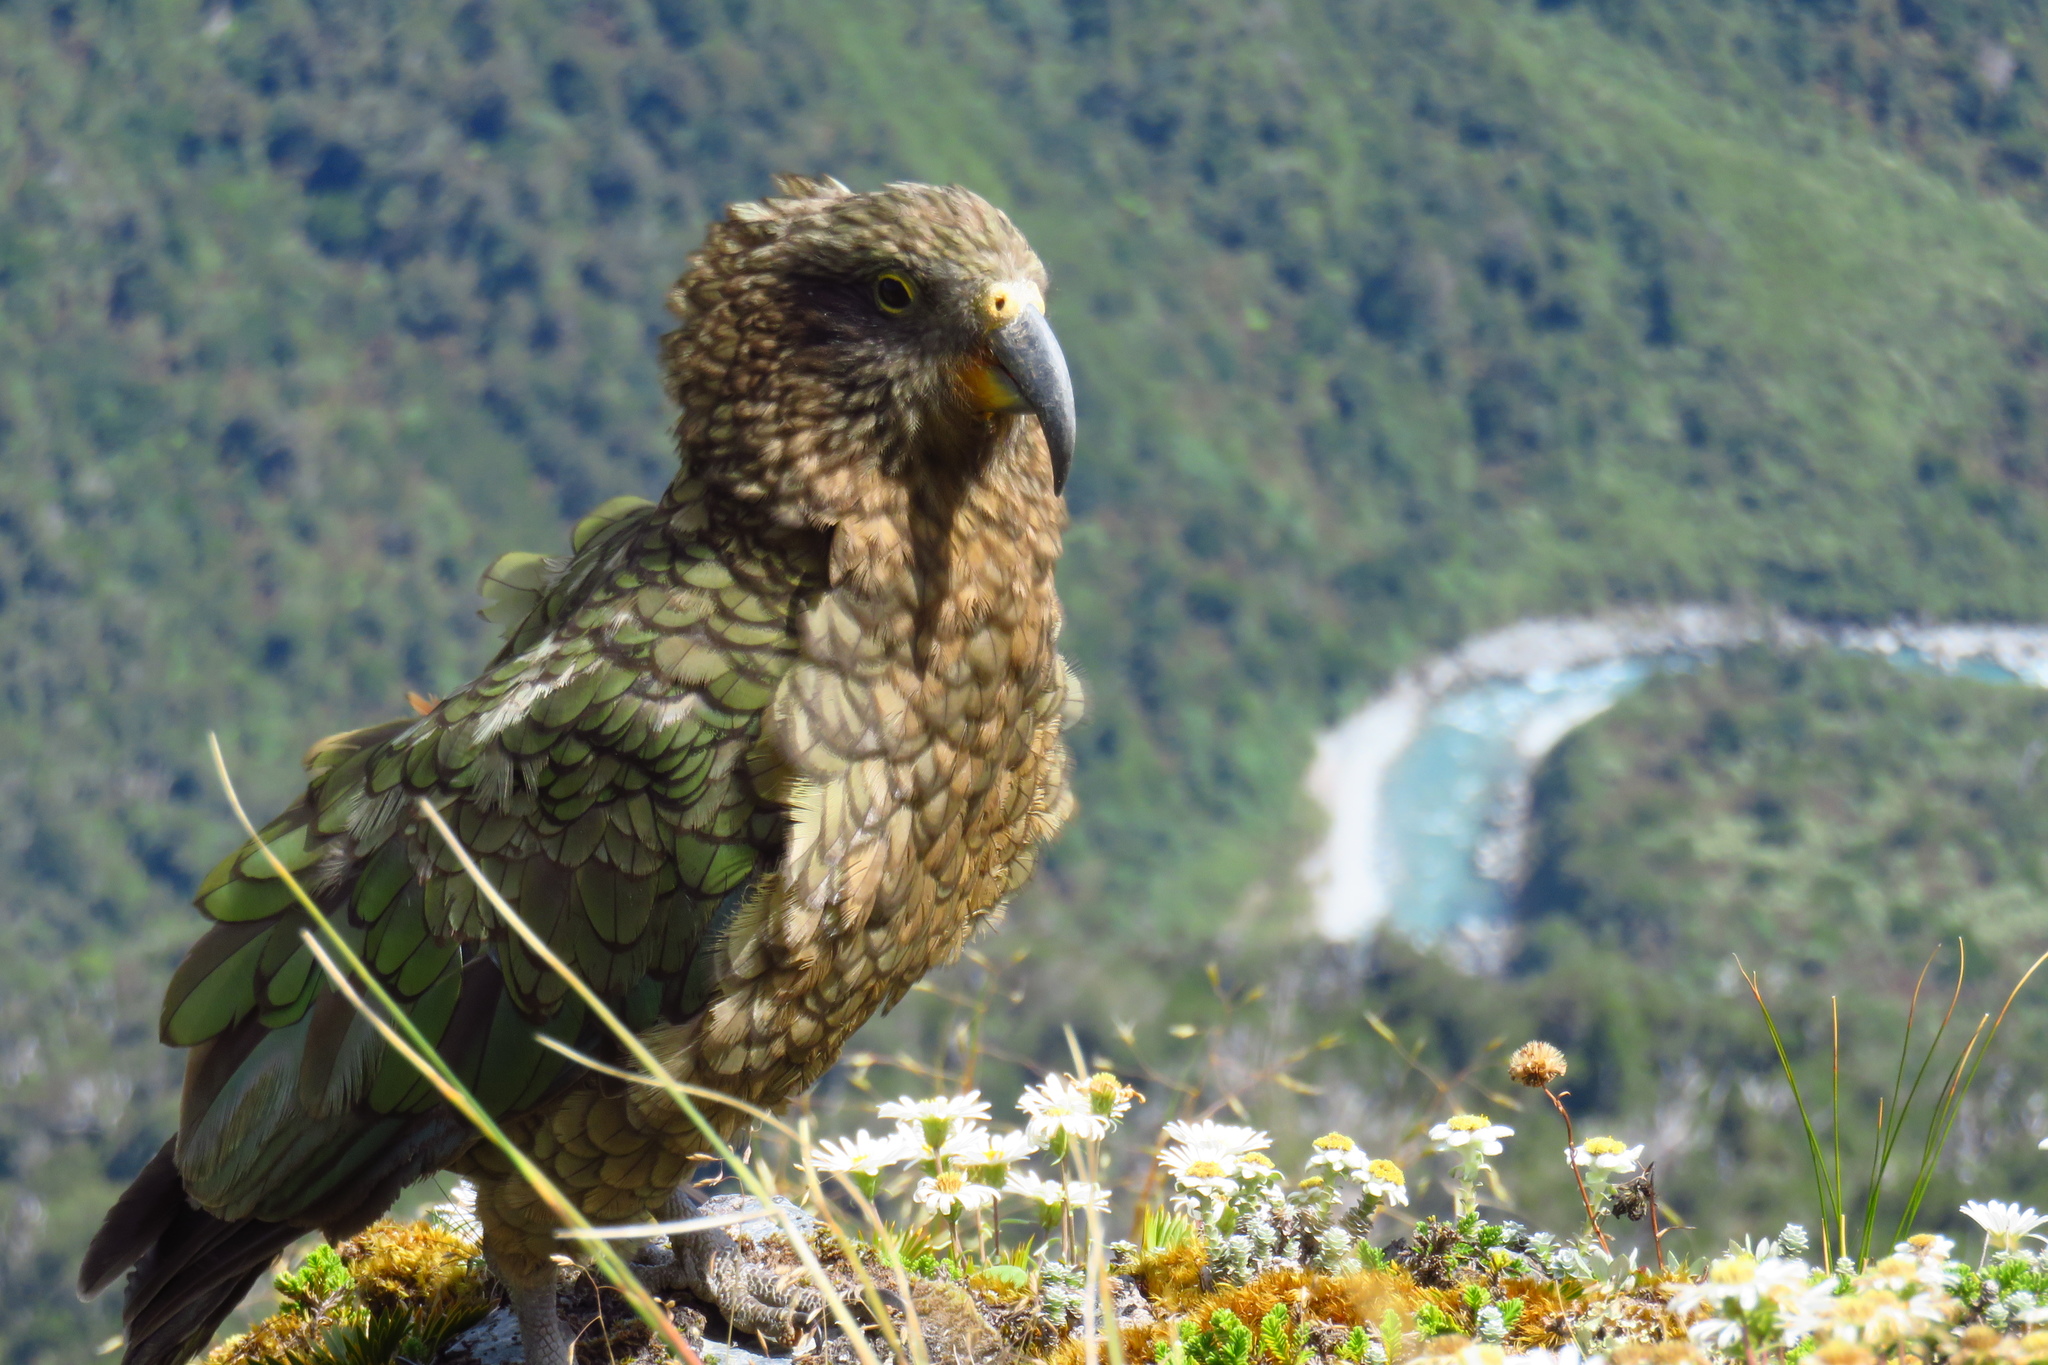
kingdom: Animalia
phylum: Chordata
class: Aves
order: Psittaciformes
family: Psittacidae
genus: Nestor
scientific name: Nestor notabilis
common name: Kea
